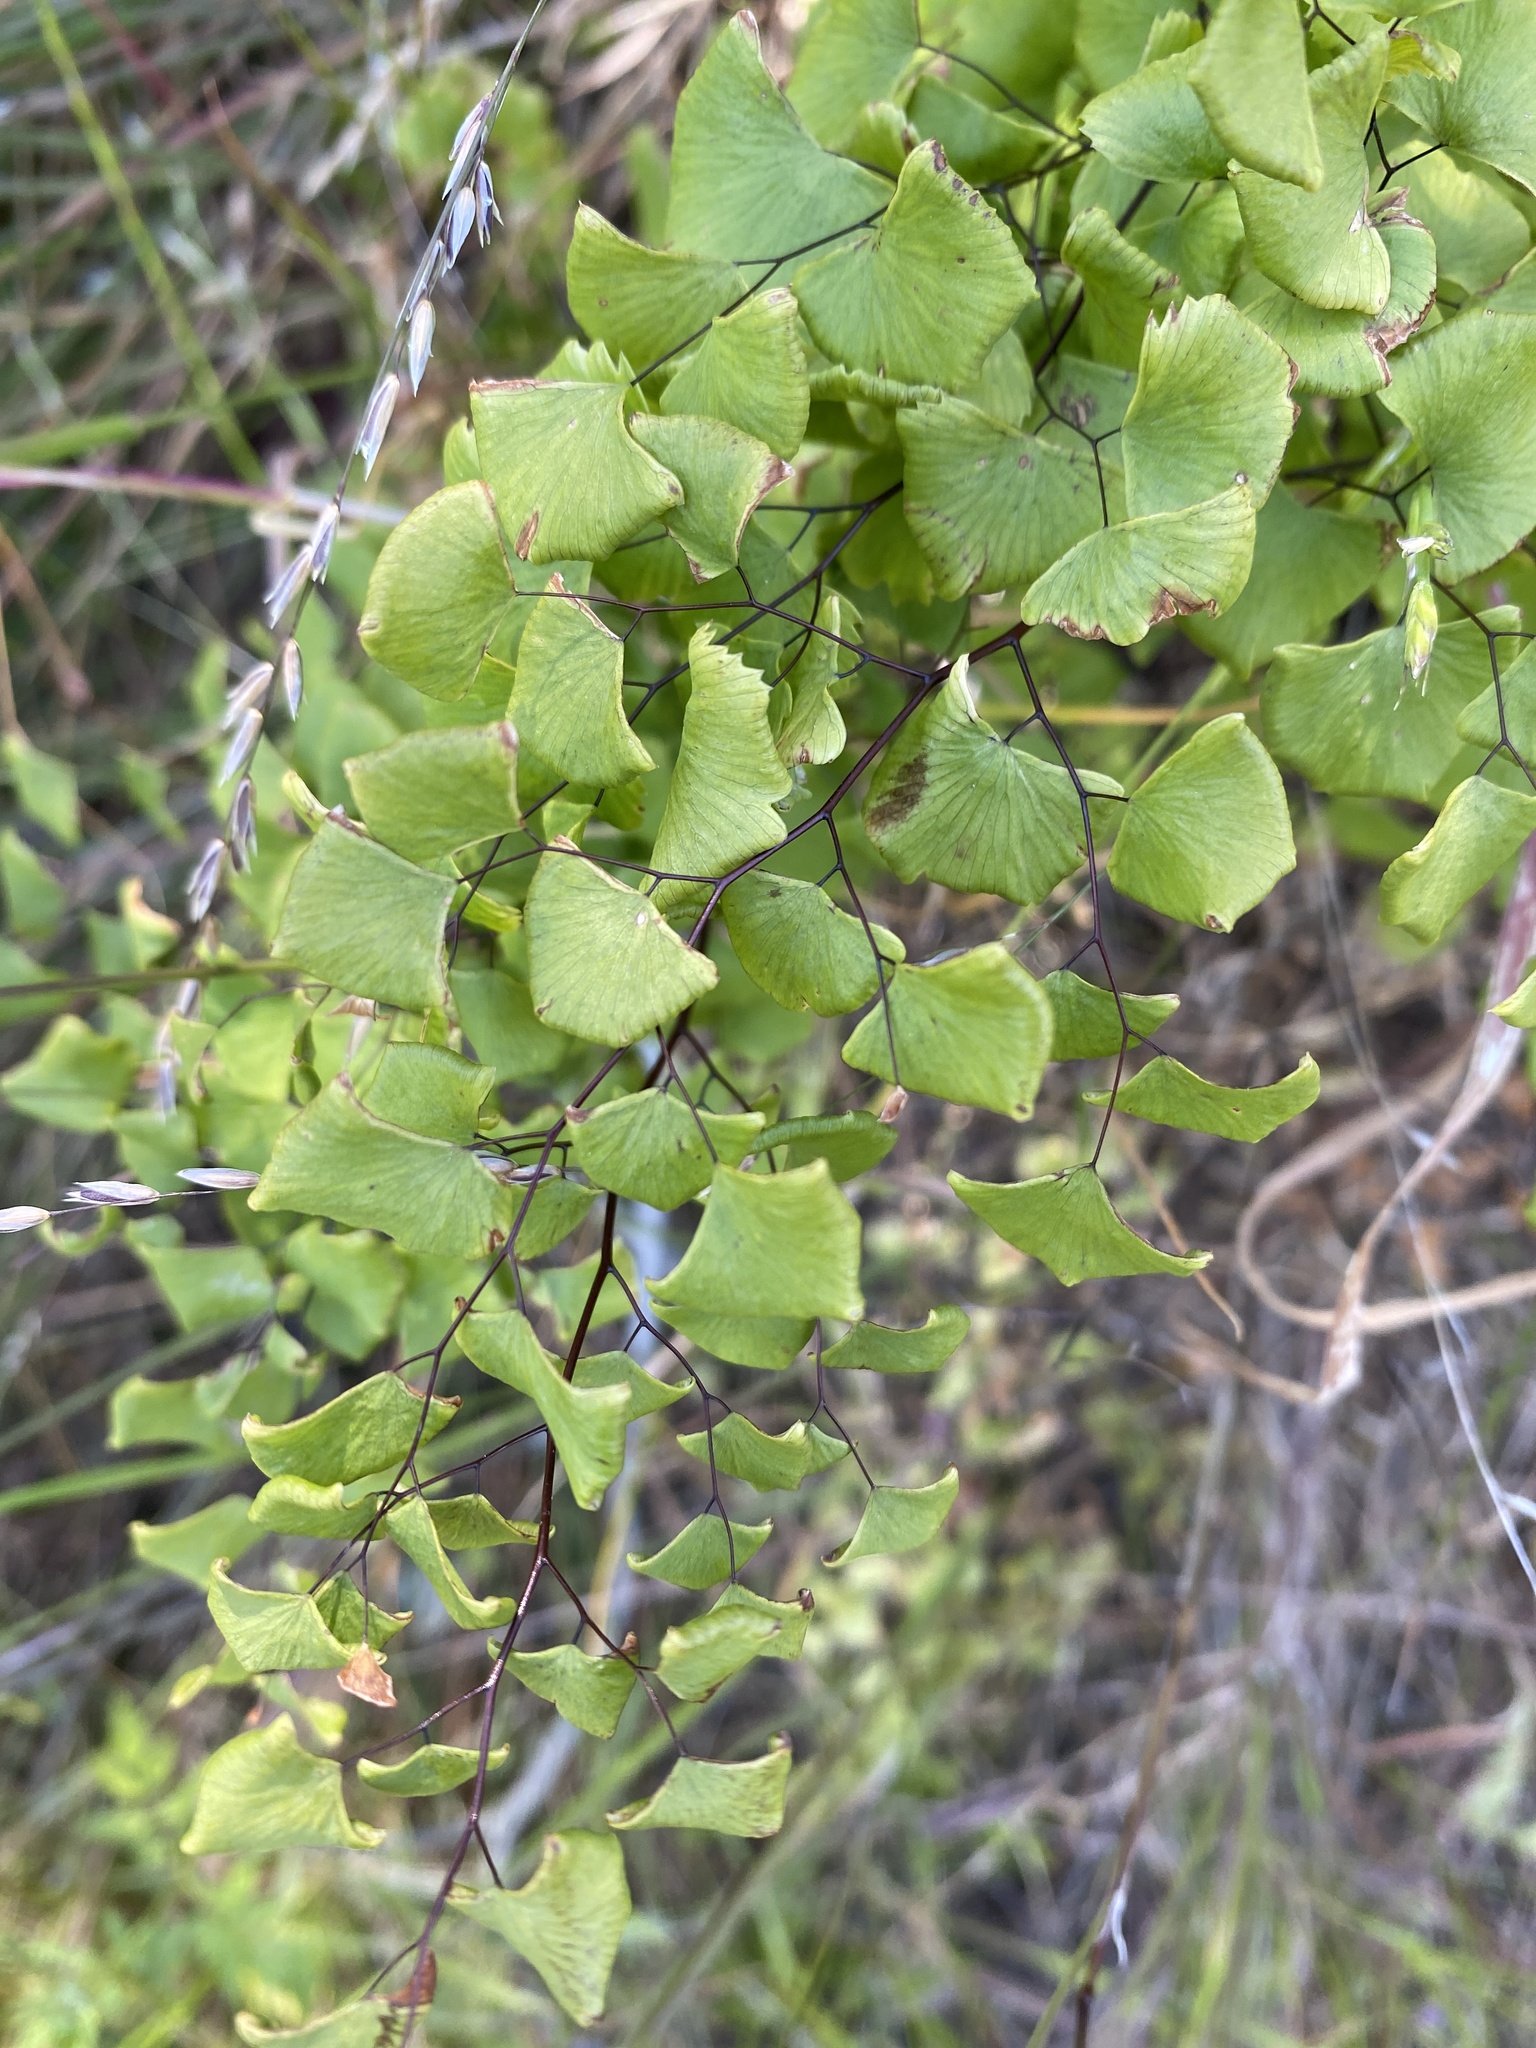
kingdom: Plantae
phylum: Tracheophyta
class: Polypodiopsida
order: Polypodiales
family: Pteridaceae
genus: Adiantum
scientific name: Adiantum jordanii
